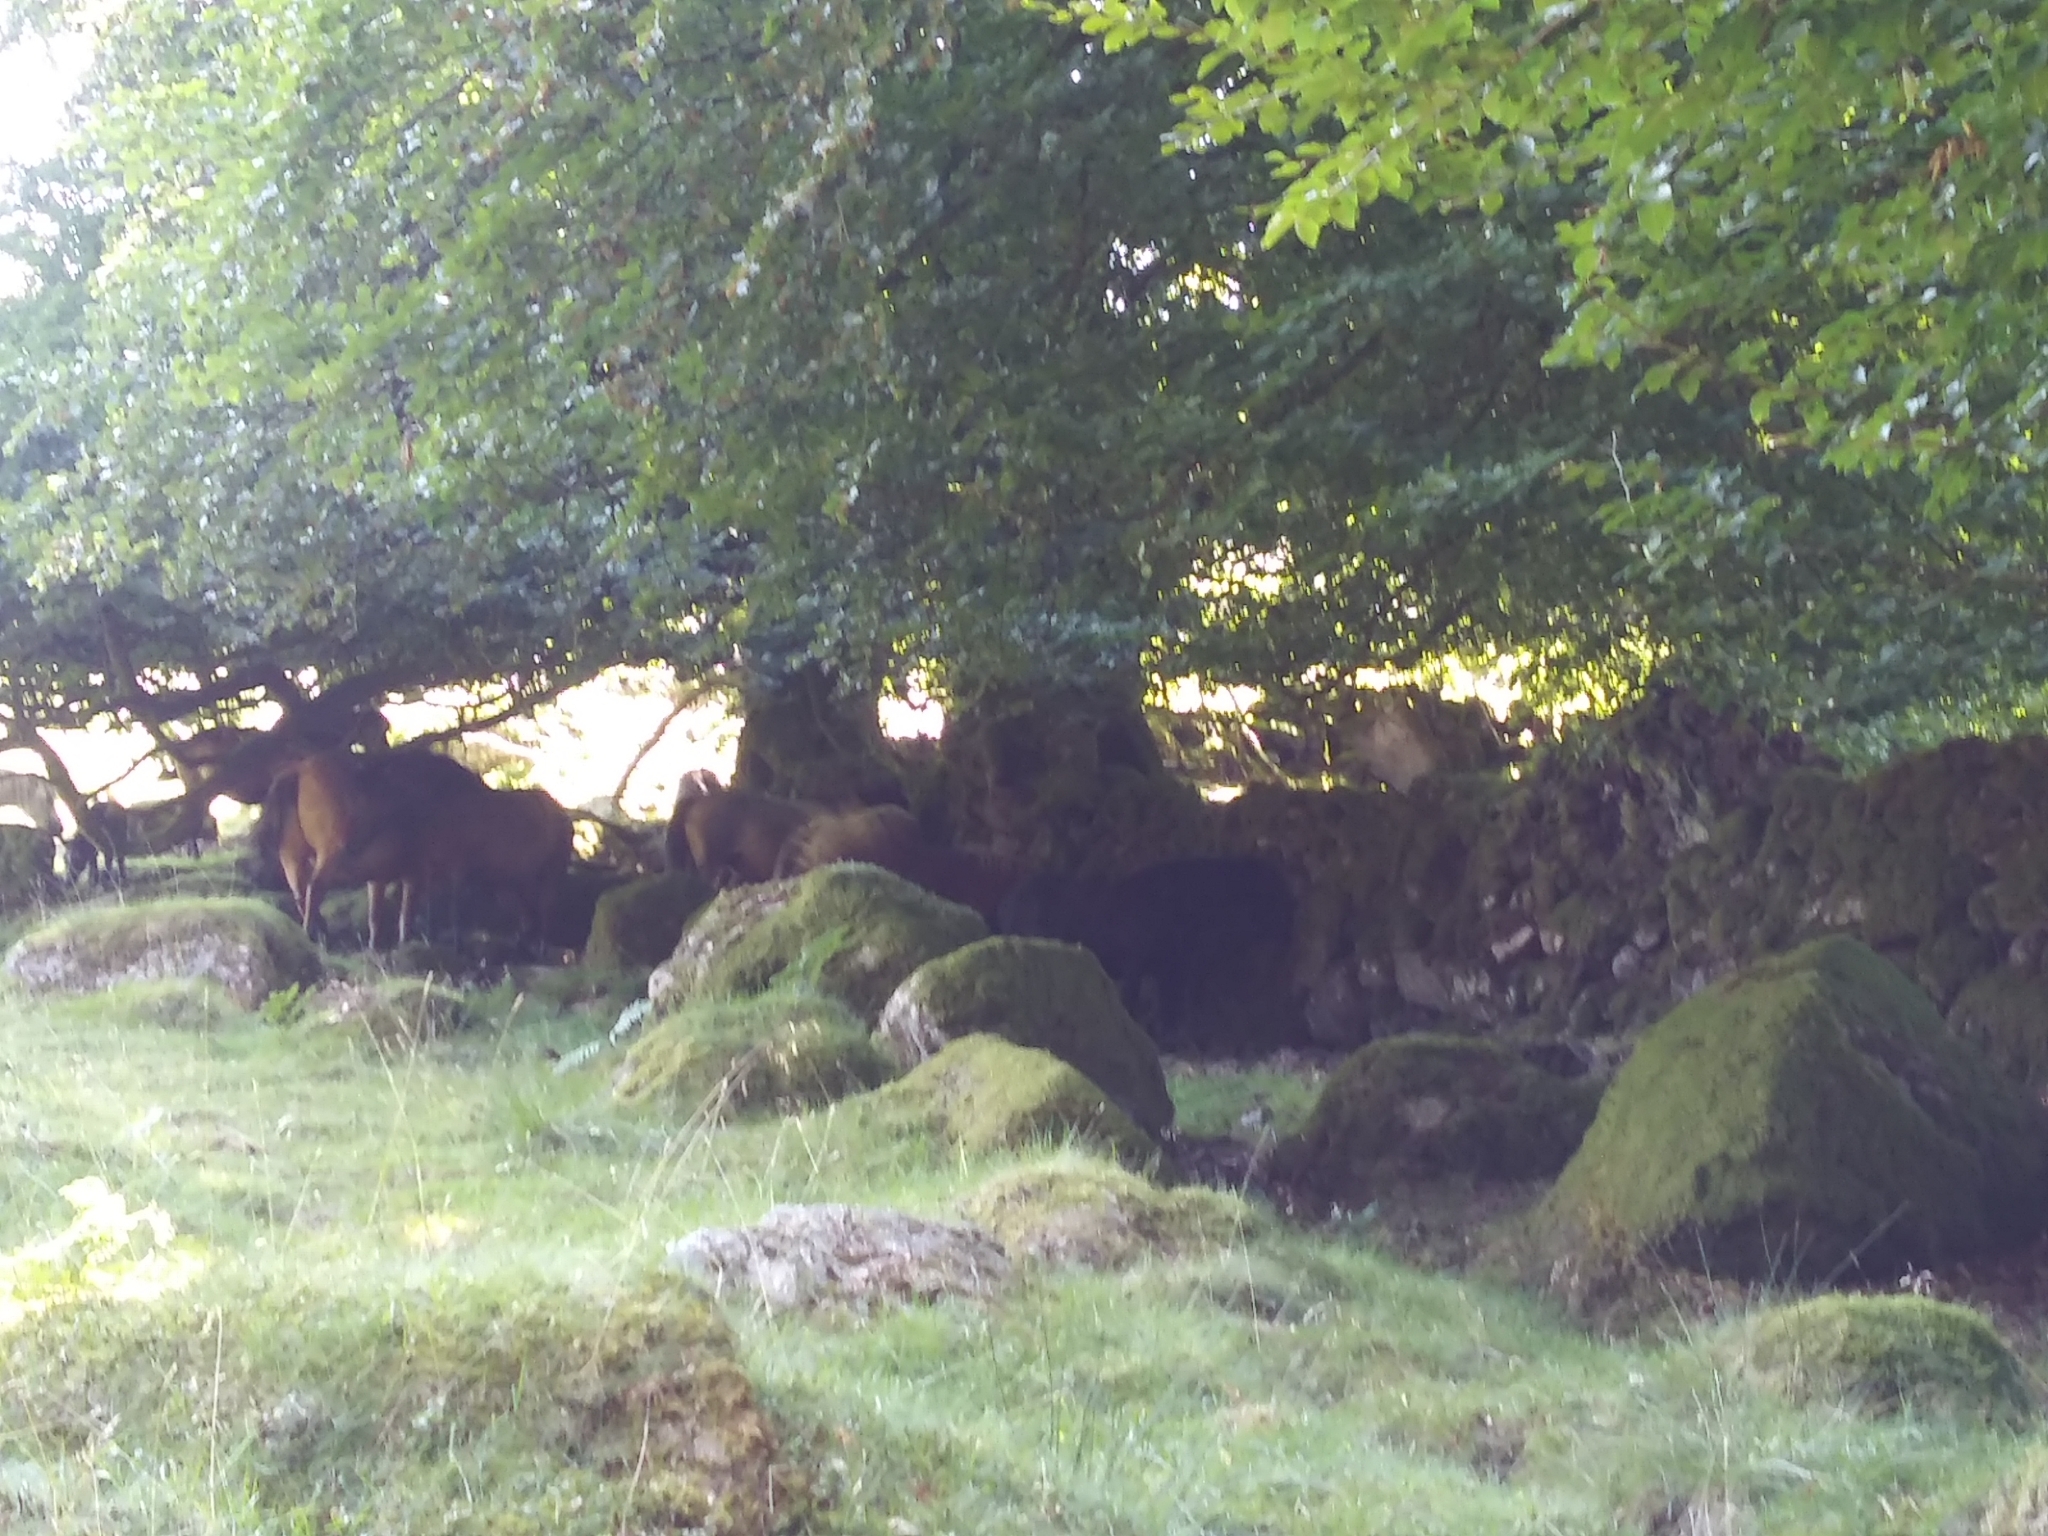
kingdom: Animalia
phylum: Chordata
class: Mammalia
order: Perissodactyla
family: Equidae
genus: Equus
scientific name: Equus caballus
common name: Horse
